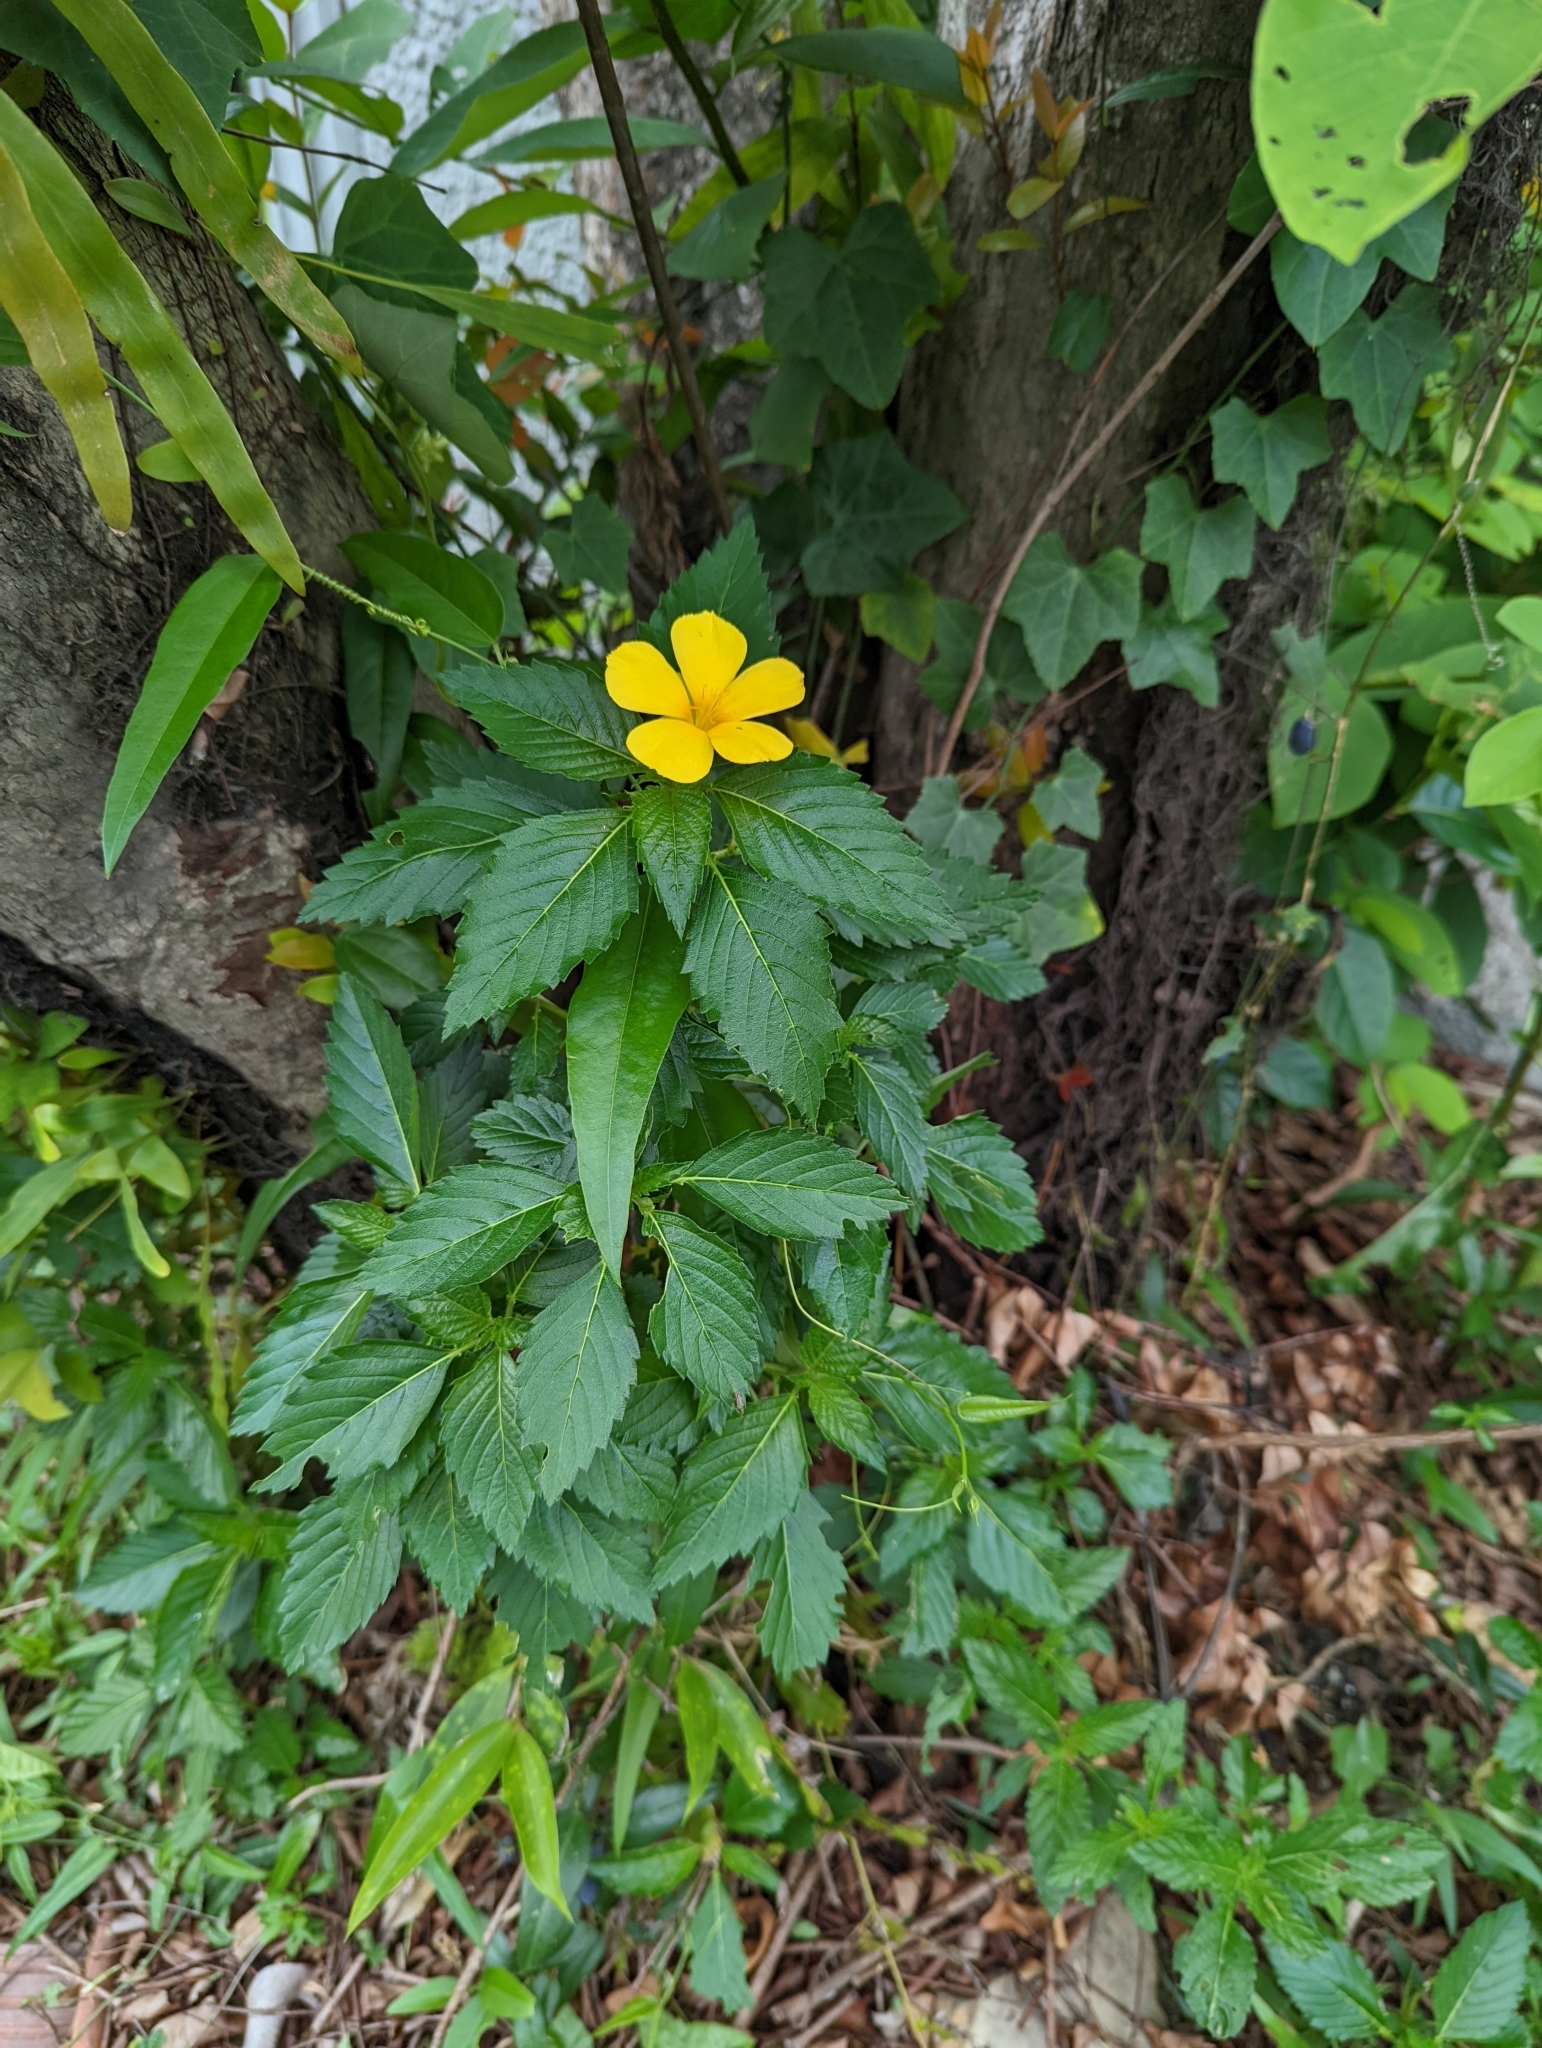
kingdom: Plantae
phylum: Tracheophyta
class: Magnoliopsida
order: Malpighiales
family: Turneraceae
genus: Turnera
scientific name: Turnera ulmifolia
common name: Ramgoat dashalong
